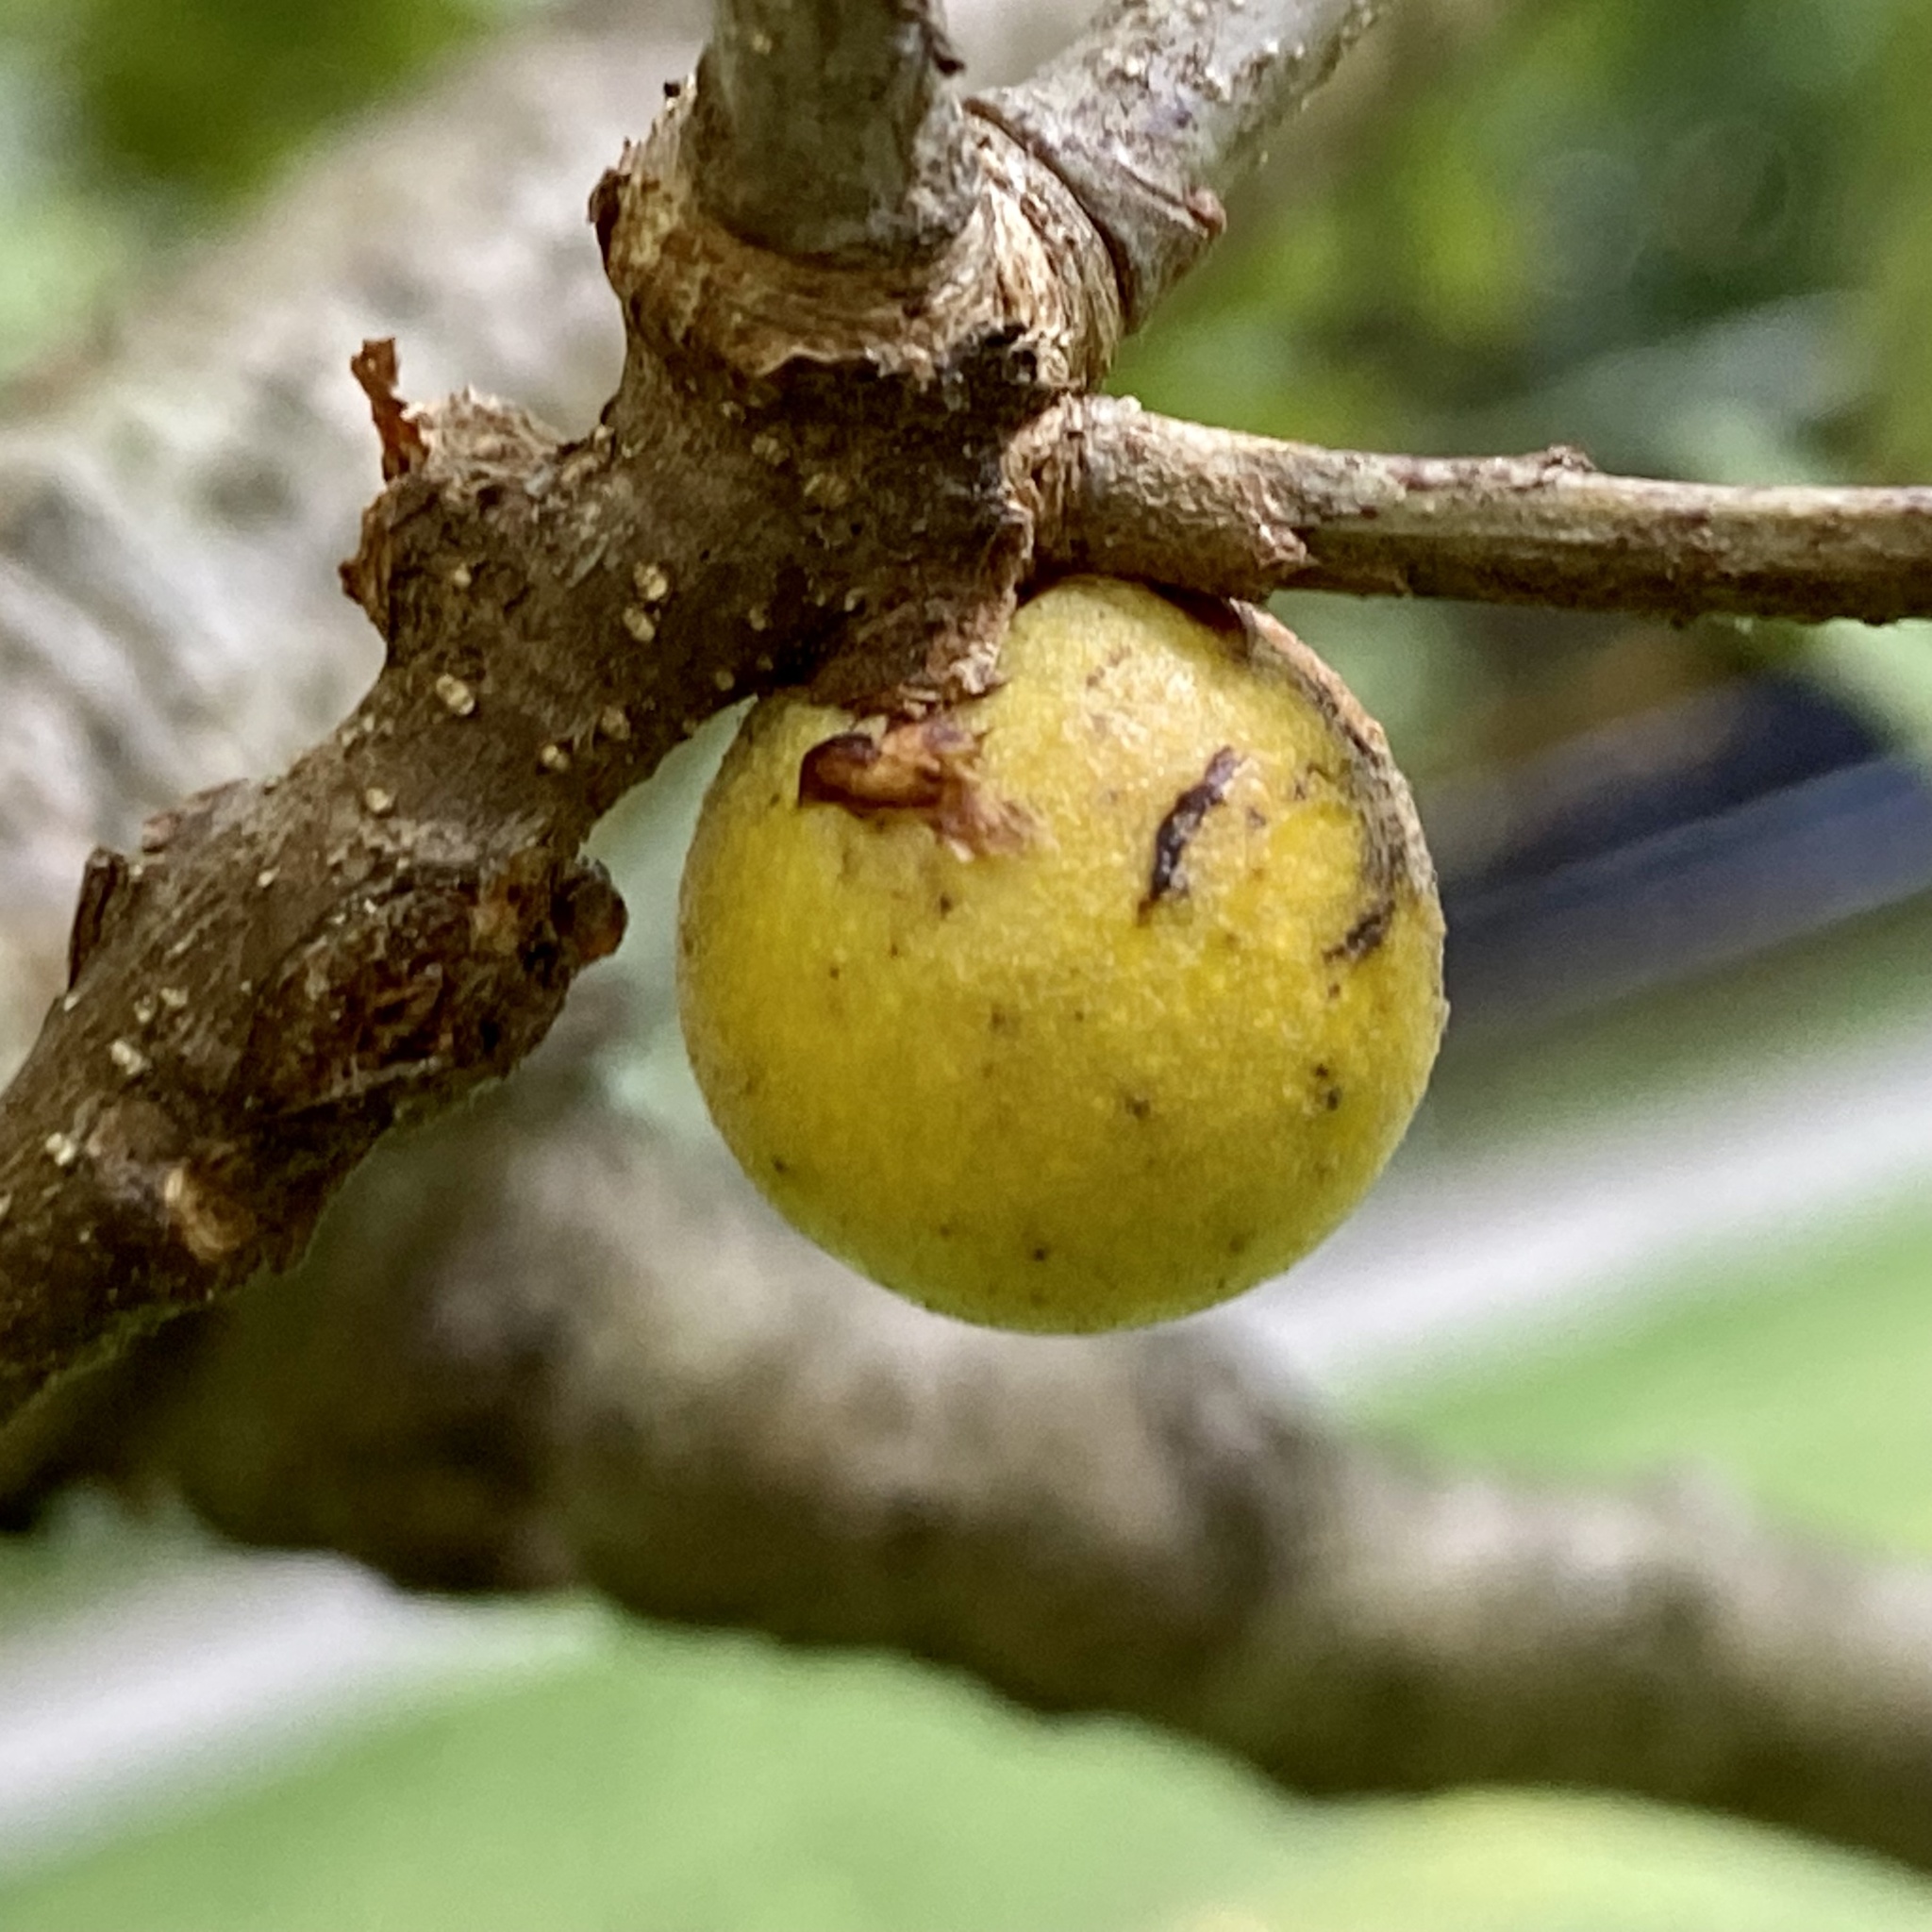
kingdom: Animalia
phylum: Arthropoda
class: Insecta
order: Hymenoptera
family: Cynipidae
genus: Disholcaspis
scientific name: Disholcaspis quercusglobulus
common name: Round bullet gall wasp
